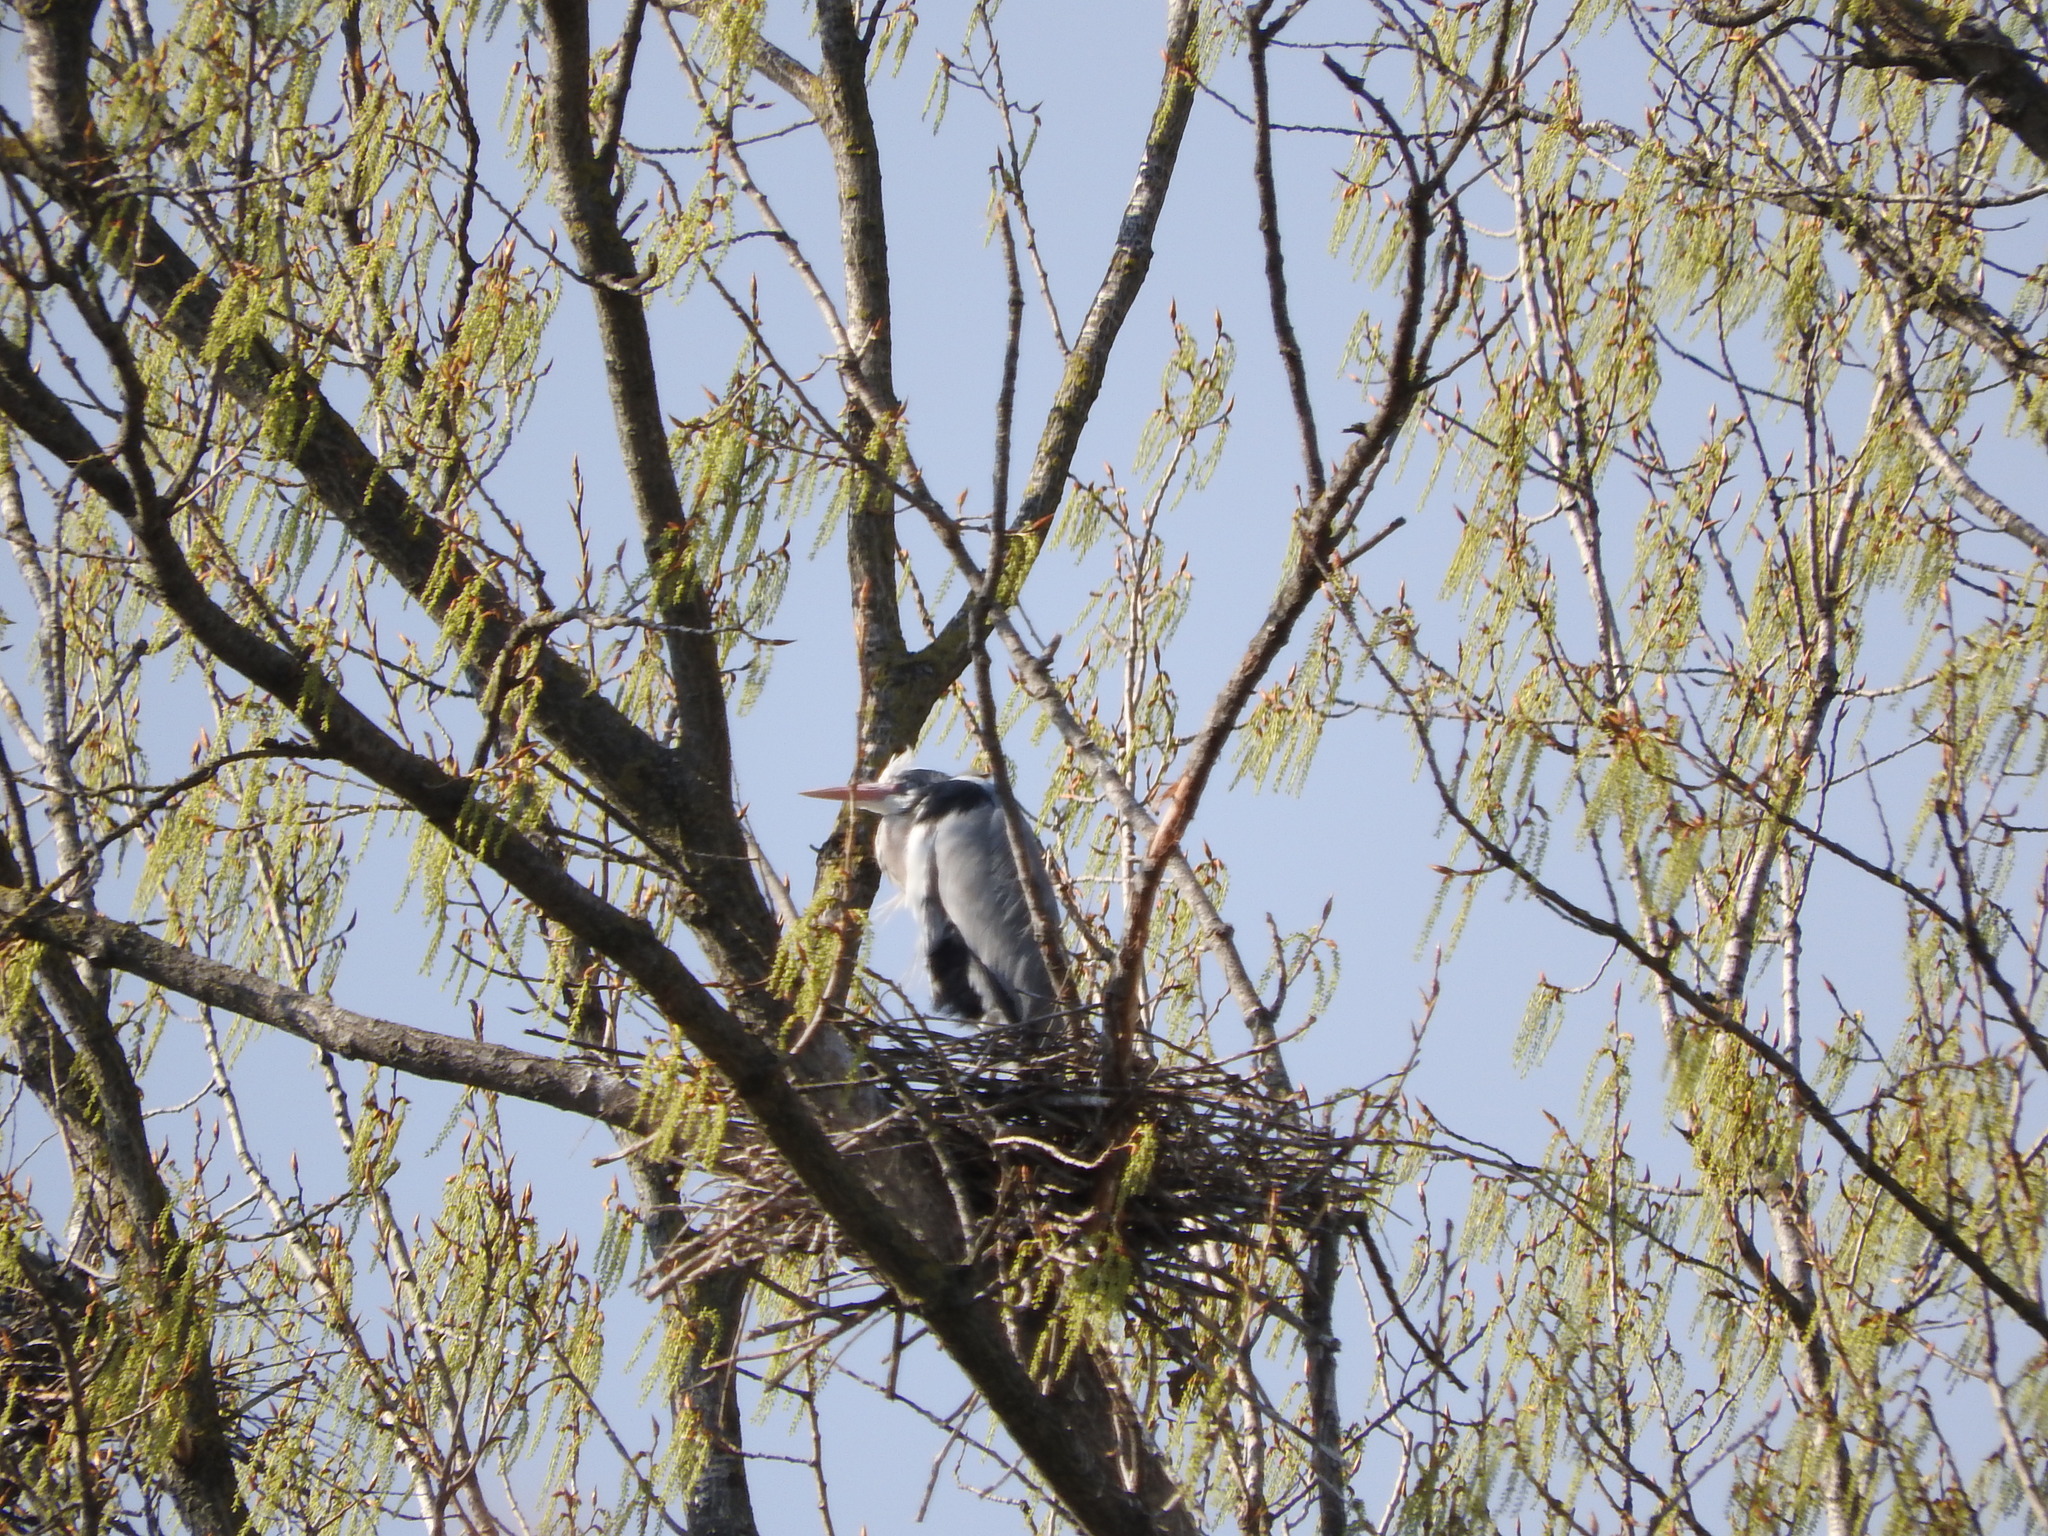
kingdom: Animalia
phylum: Chordata
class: Aves
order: Pelecaniformes
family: Ardeidae
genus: Ardea
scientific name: Ardea cinerea
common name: Grey heron
